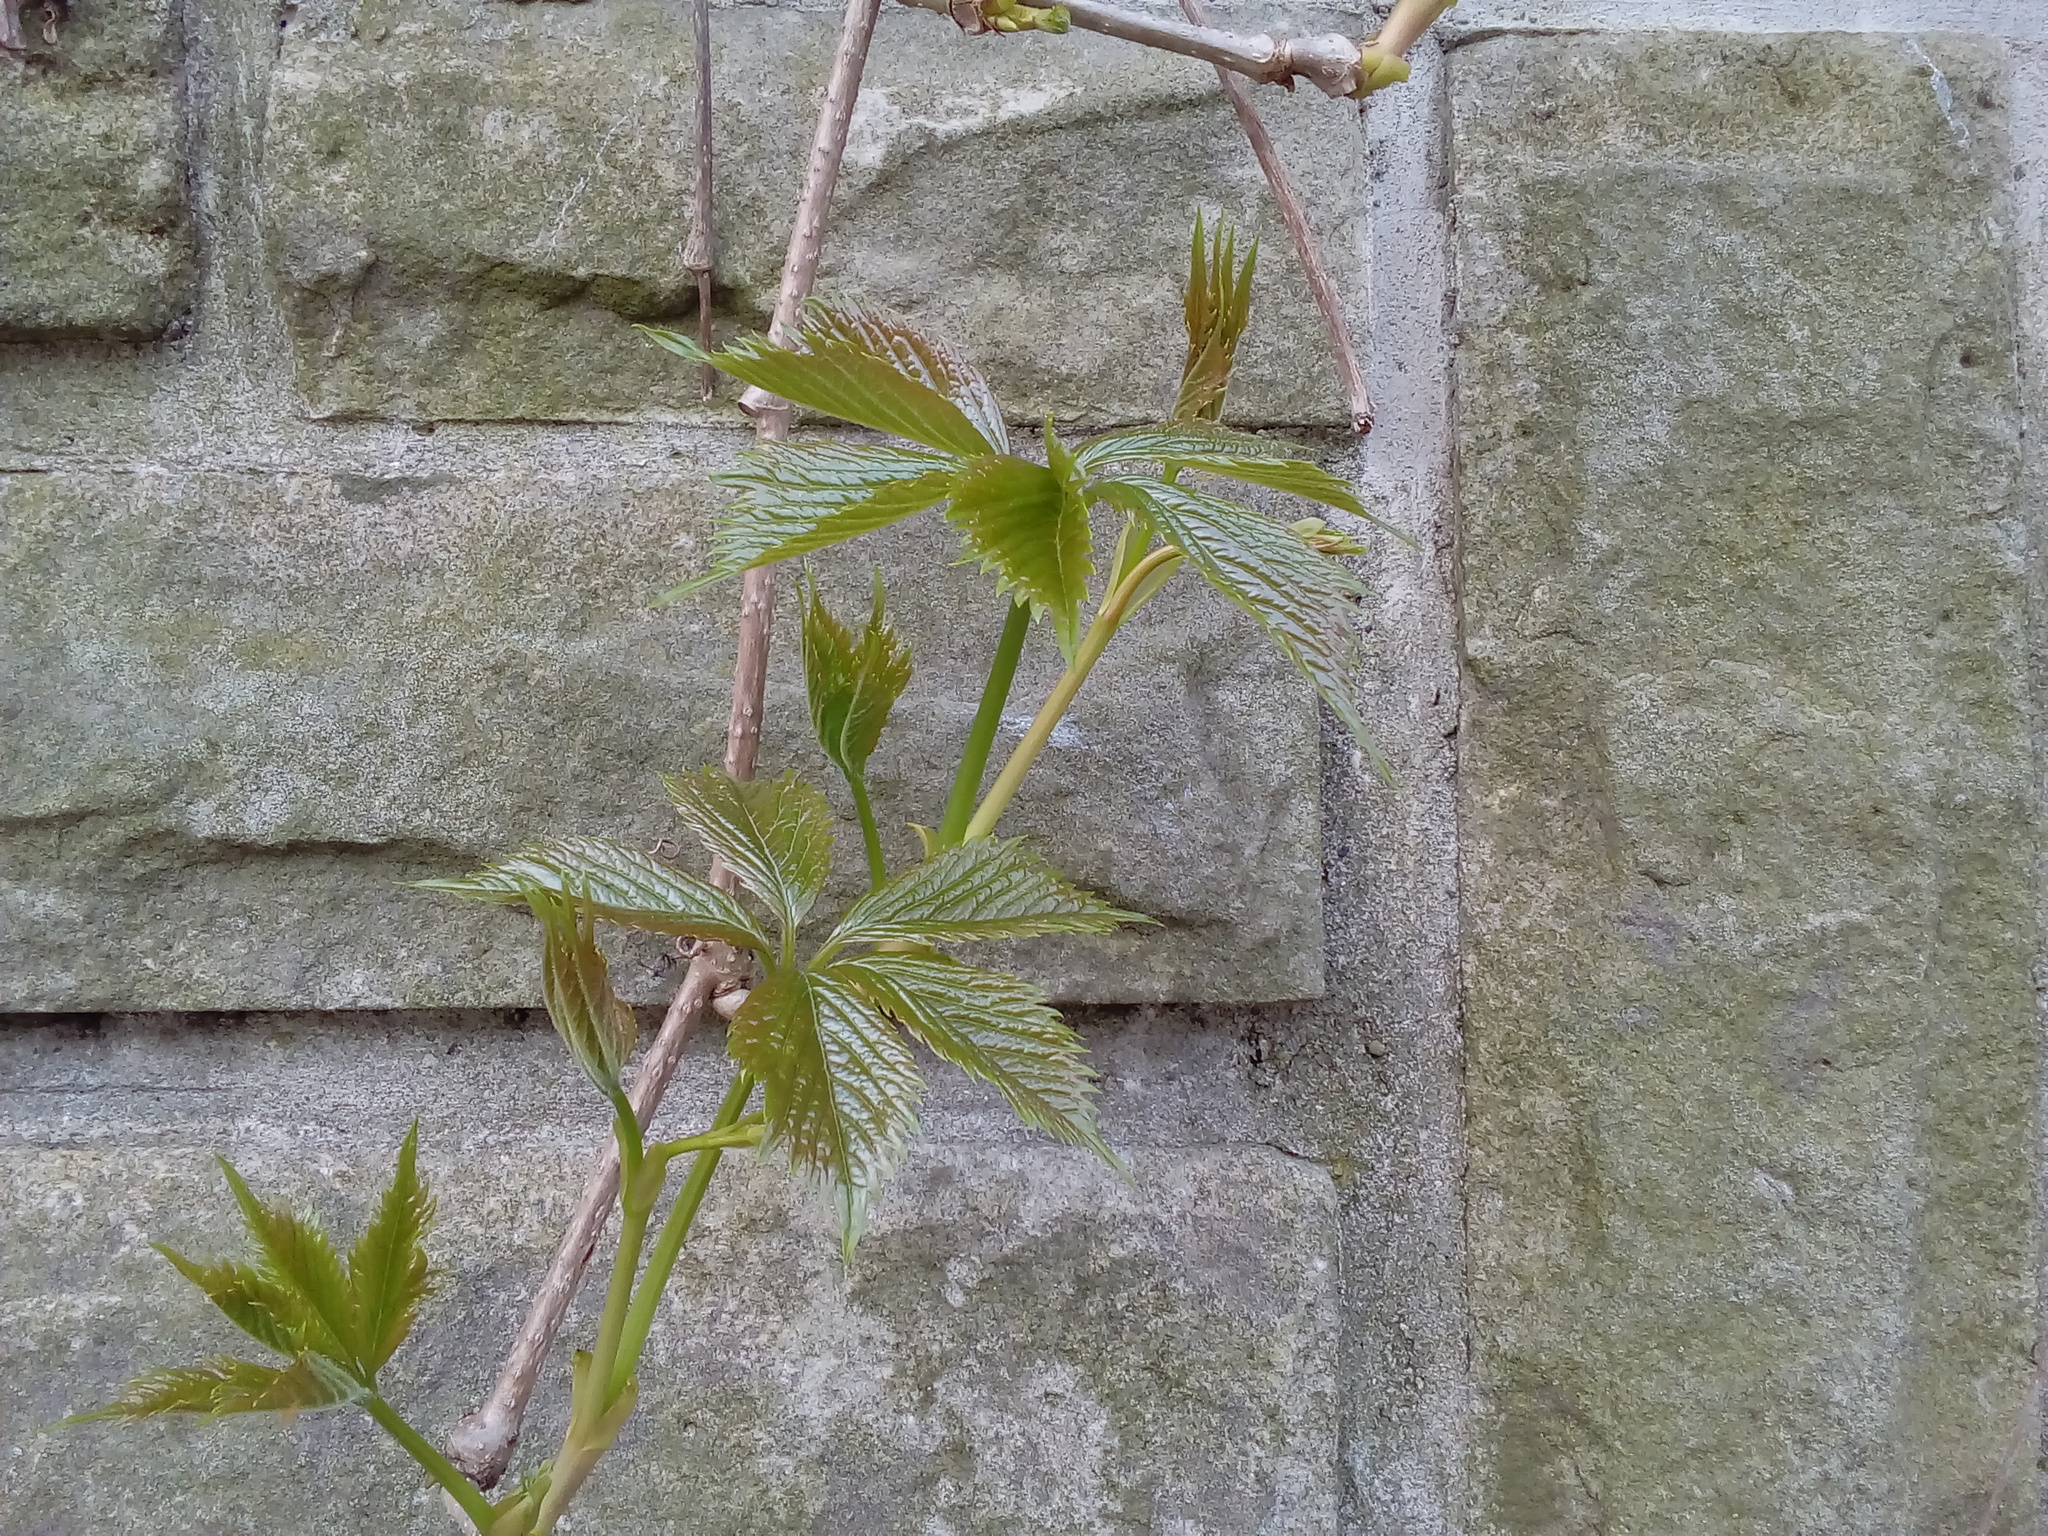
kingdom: Plantae
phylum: Tracheophyta
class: Magnoliopsida
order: Vitales
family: Vitaceae
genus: Parthenocissus
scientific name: Parthenocissus quinquefolia
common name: Virginia-creeper
